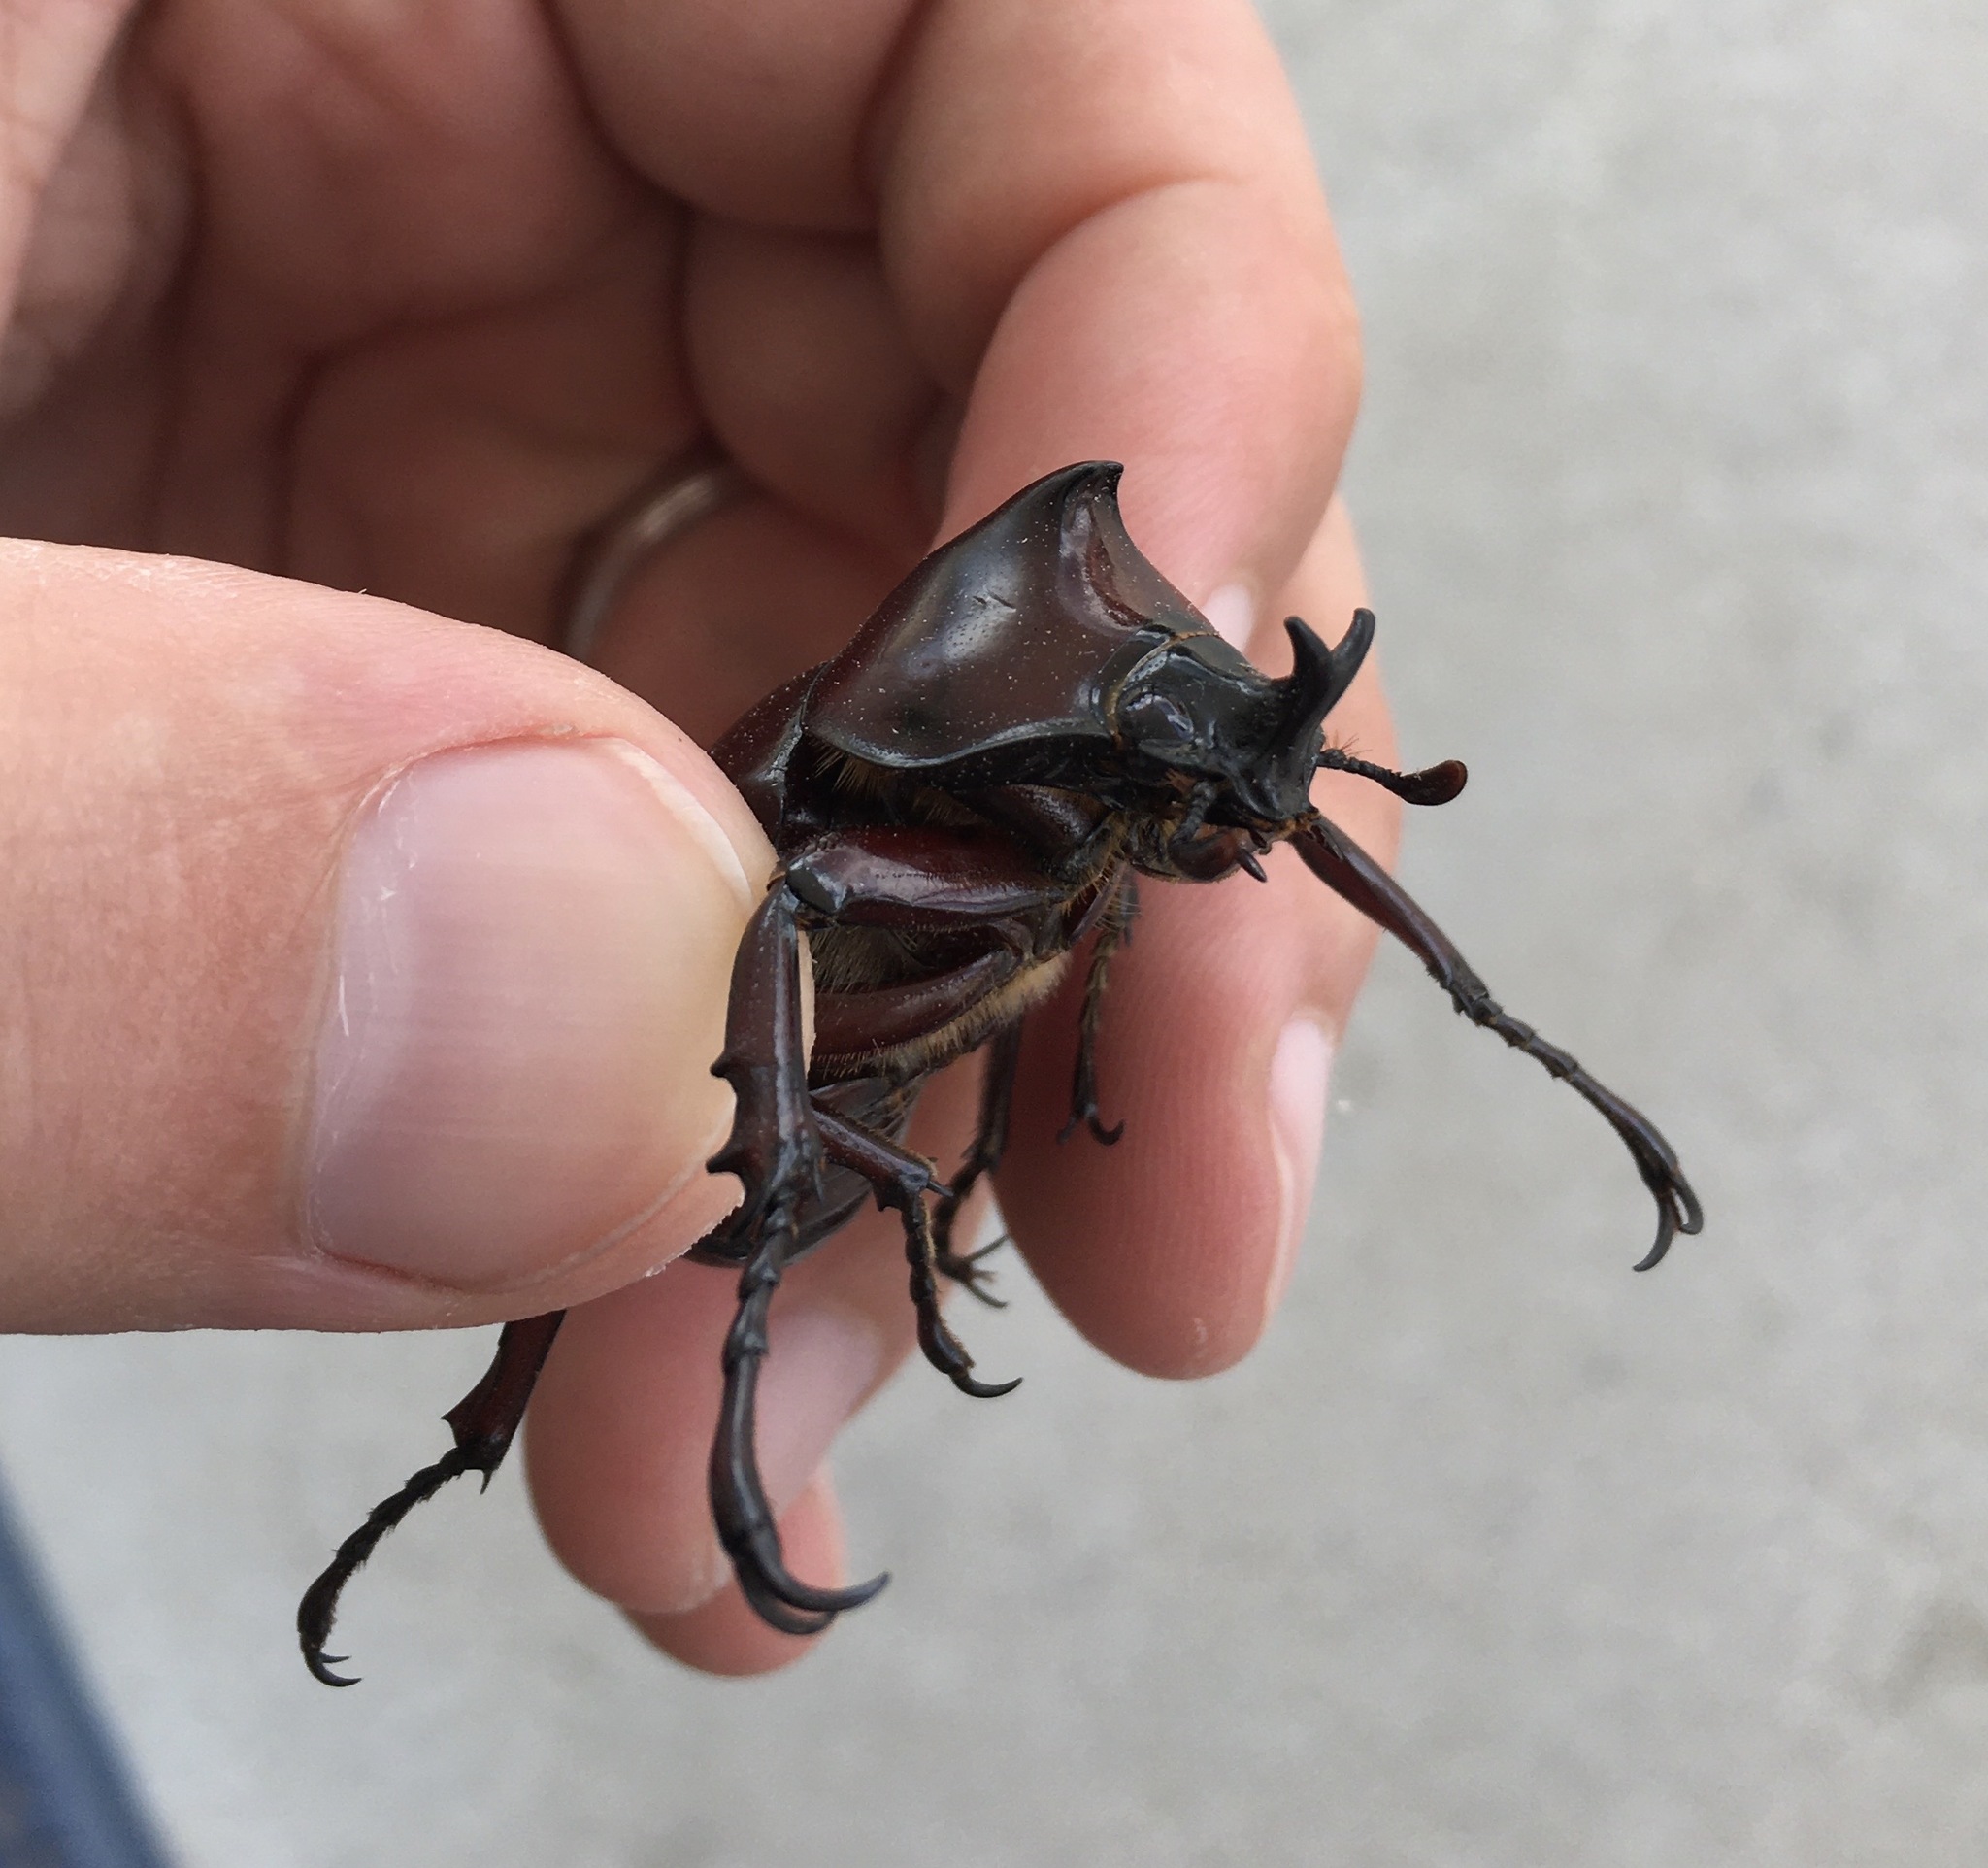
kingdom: Animalia
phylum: Arthropoda
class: Insecta
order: Coleoptera
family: Scarabaeidae
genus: Xylotrupes
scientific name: Xylotrupes socrates
